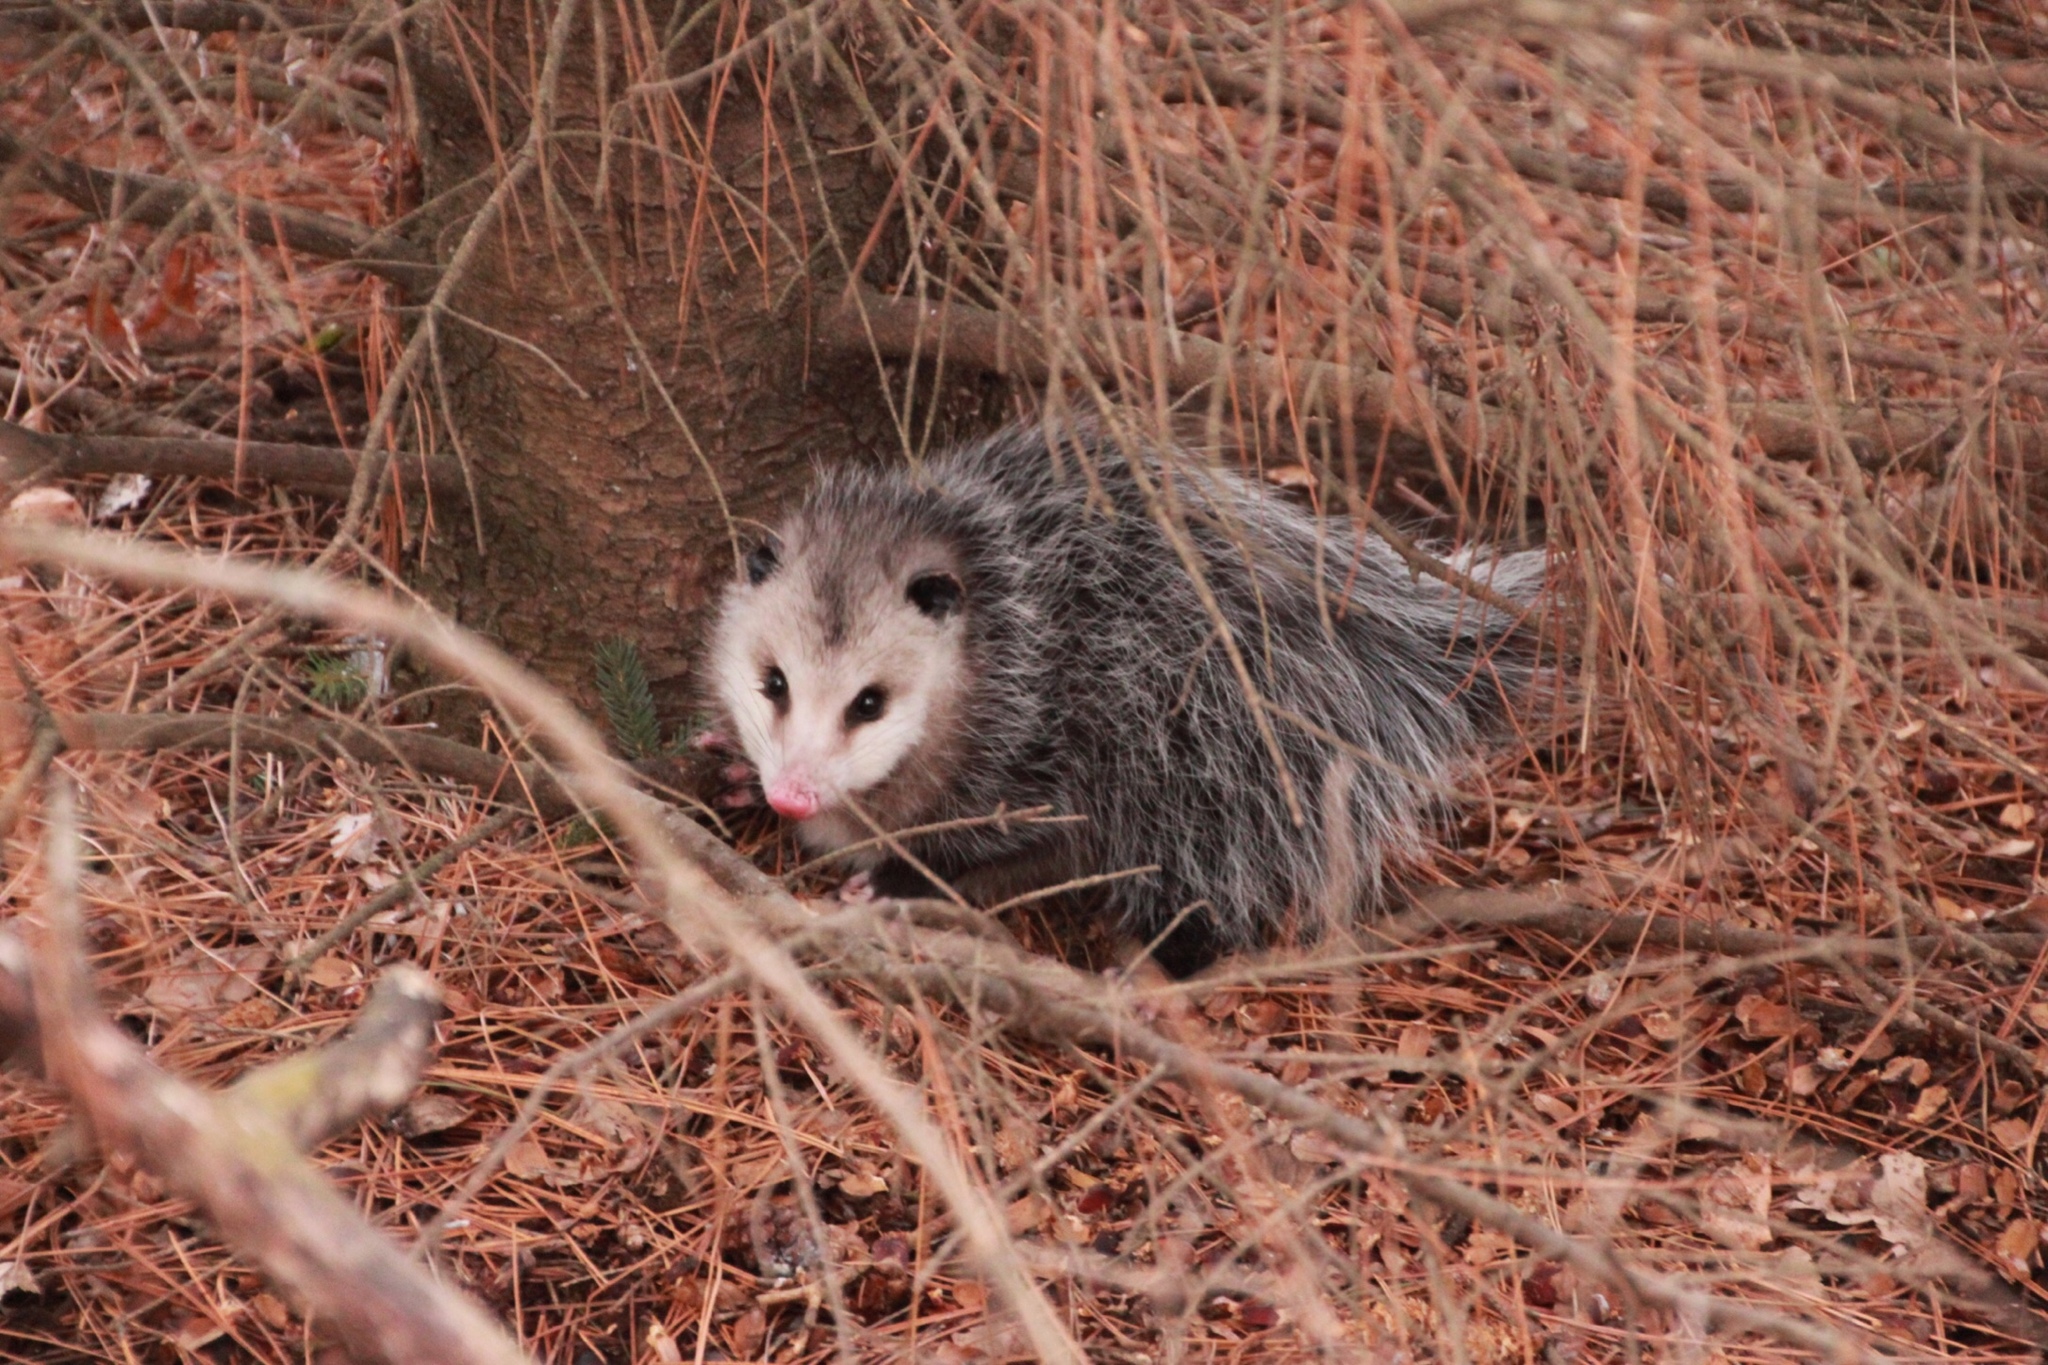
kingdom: Animalia
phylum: Chordata
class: Mammalia
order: Didelphimorphia
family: Didelphidae
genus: Didelphis
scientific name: Didelphis virginiana
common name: Virginia opossum
